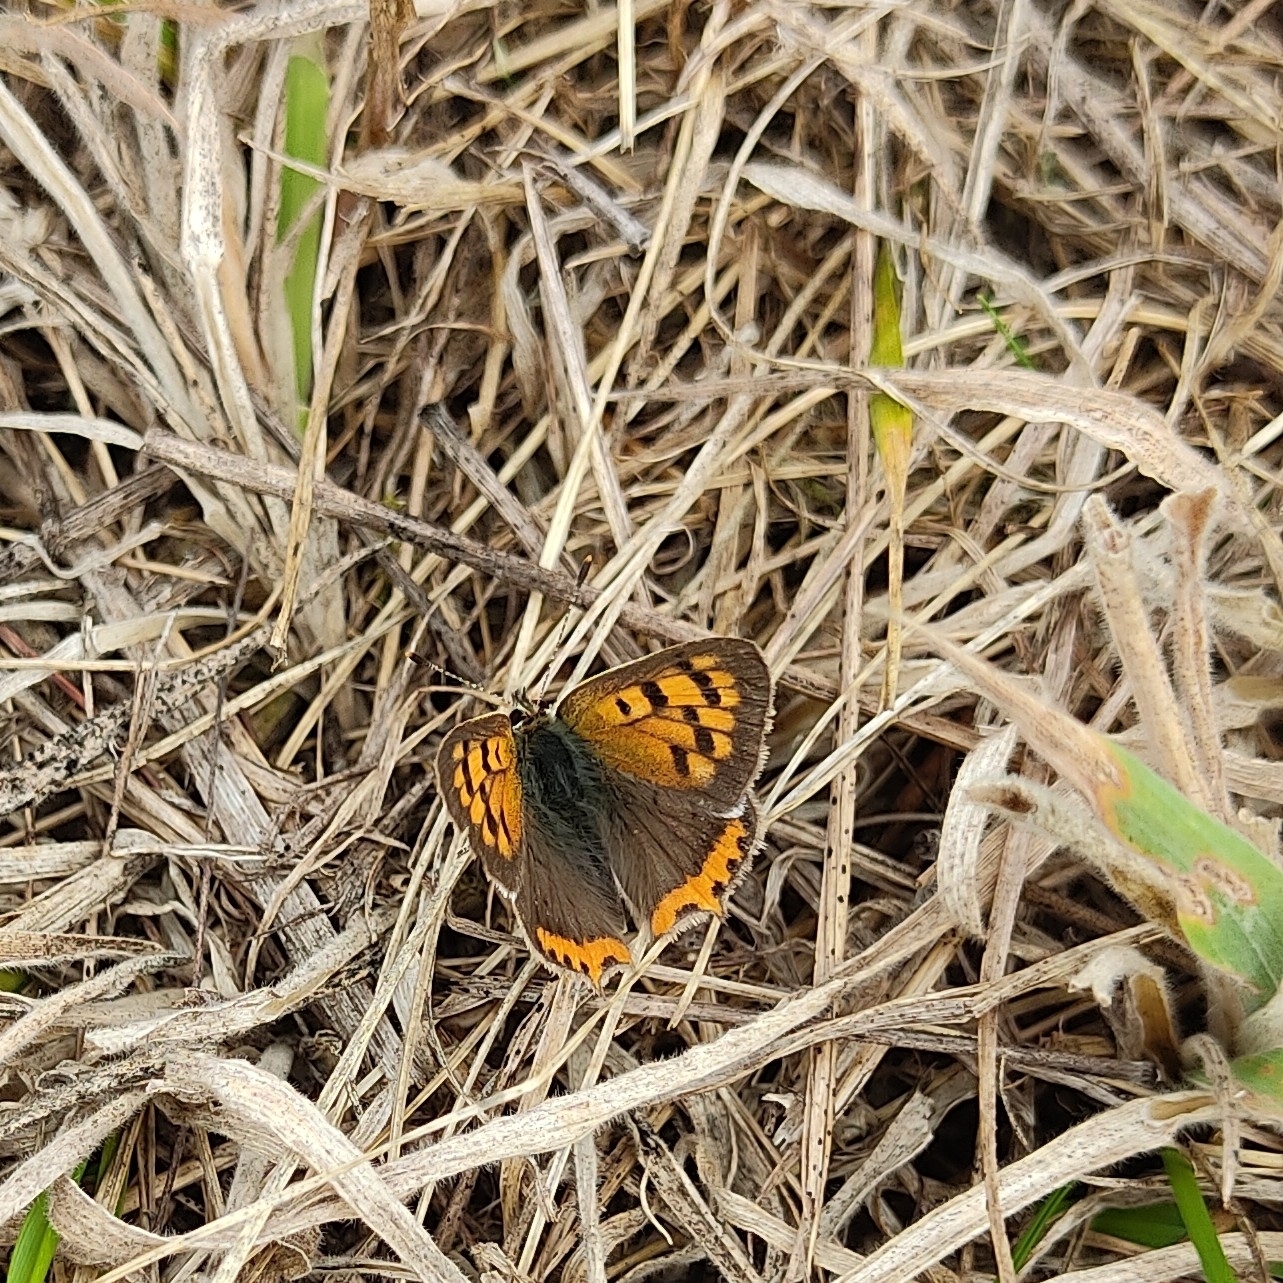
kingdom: Animalia
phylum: Arthropoda
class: Insecta
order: Lepidoptera
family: Lycaenidae
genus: Lycaena
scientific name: Lycaena phlaeas
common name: Small copper
